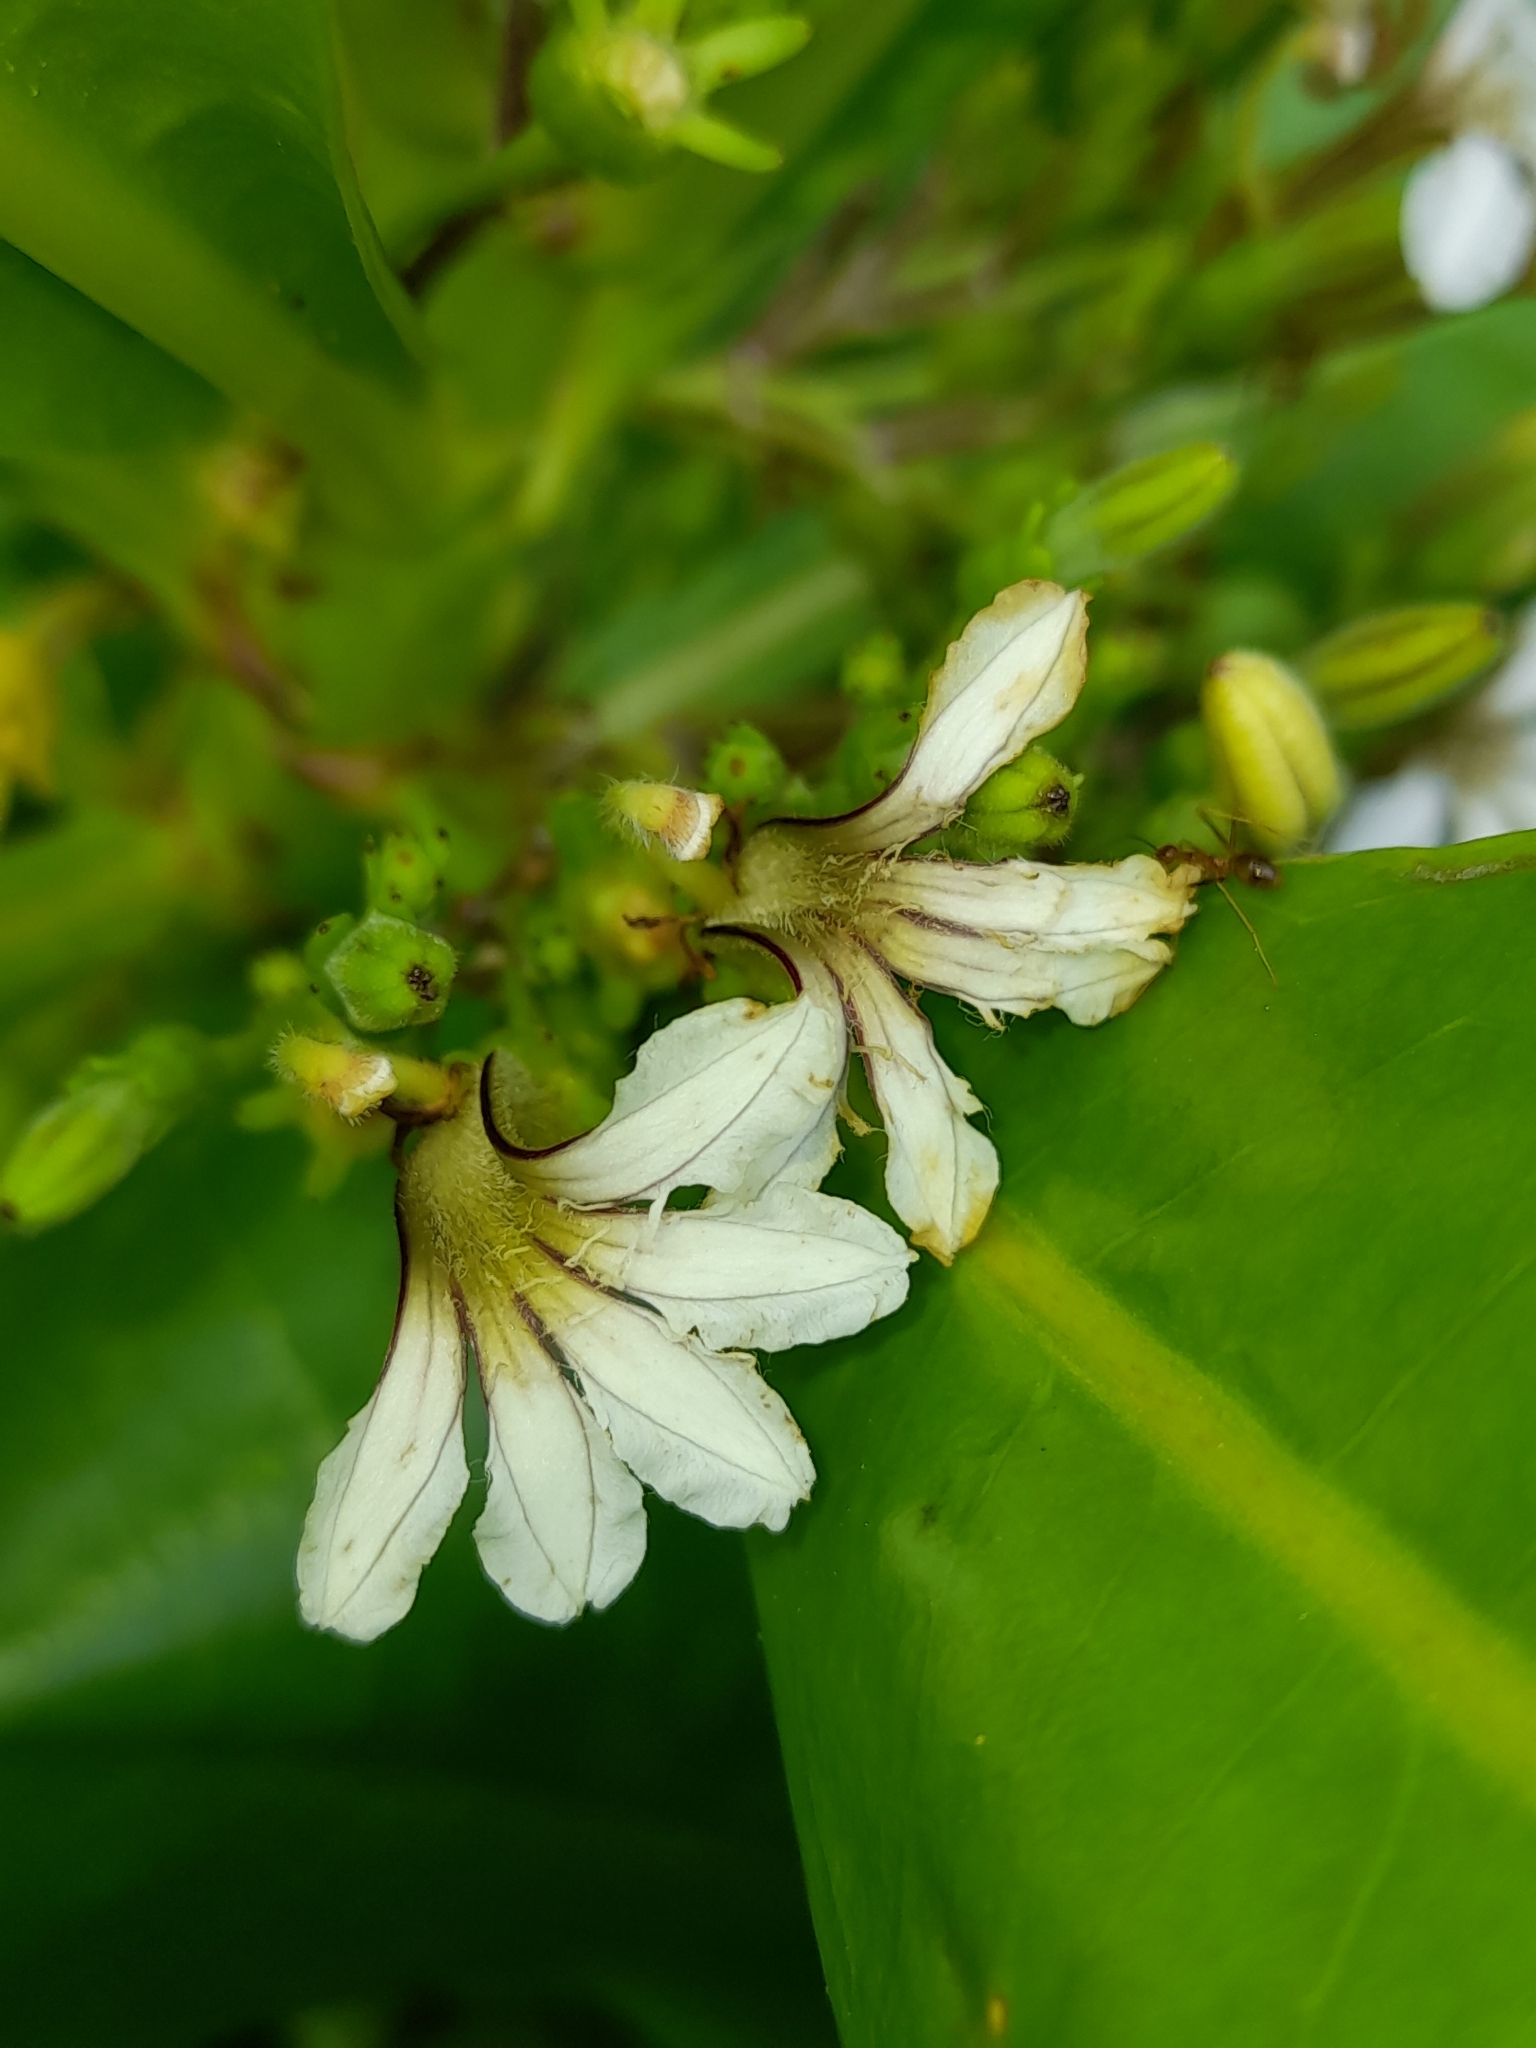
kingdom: Plantae
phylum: Tracheophyta
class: Magnoliopsida
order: Asterales
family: Goodeniaceae
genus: Scaevola
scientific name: Scaevola taccada
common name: Sea lettucetree
